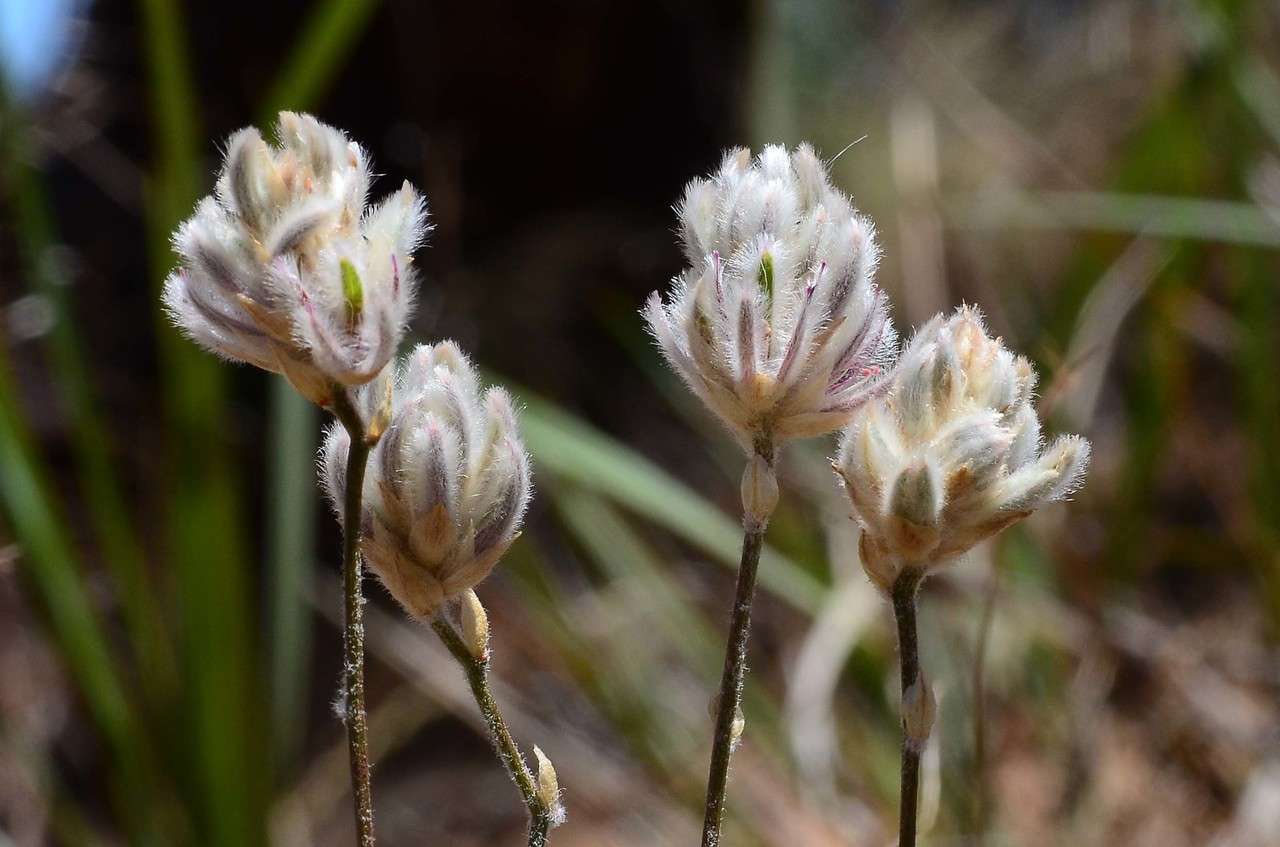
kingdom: Plantae
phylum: Tracheophyta
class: Magnoliopsida
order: Caryophyllales
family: Amaranthaceae
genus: Ptilotus
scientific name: Ptilotus erubescens
